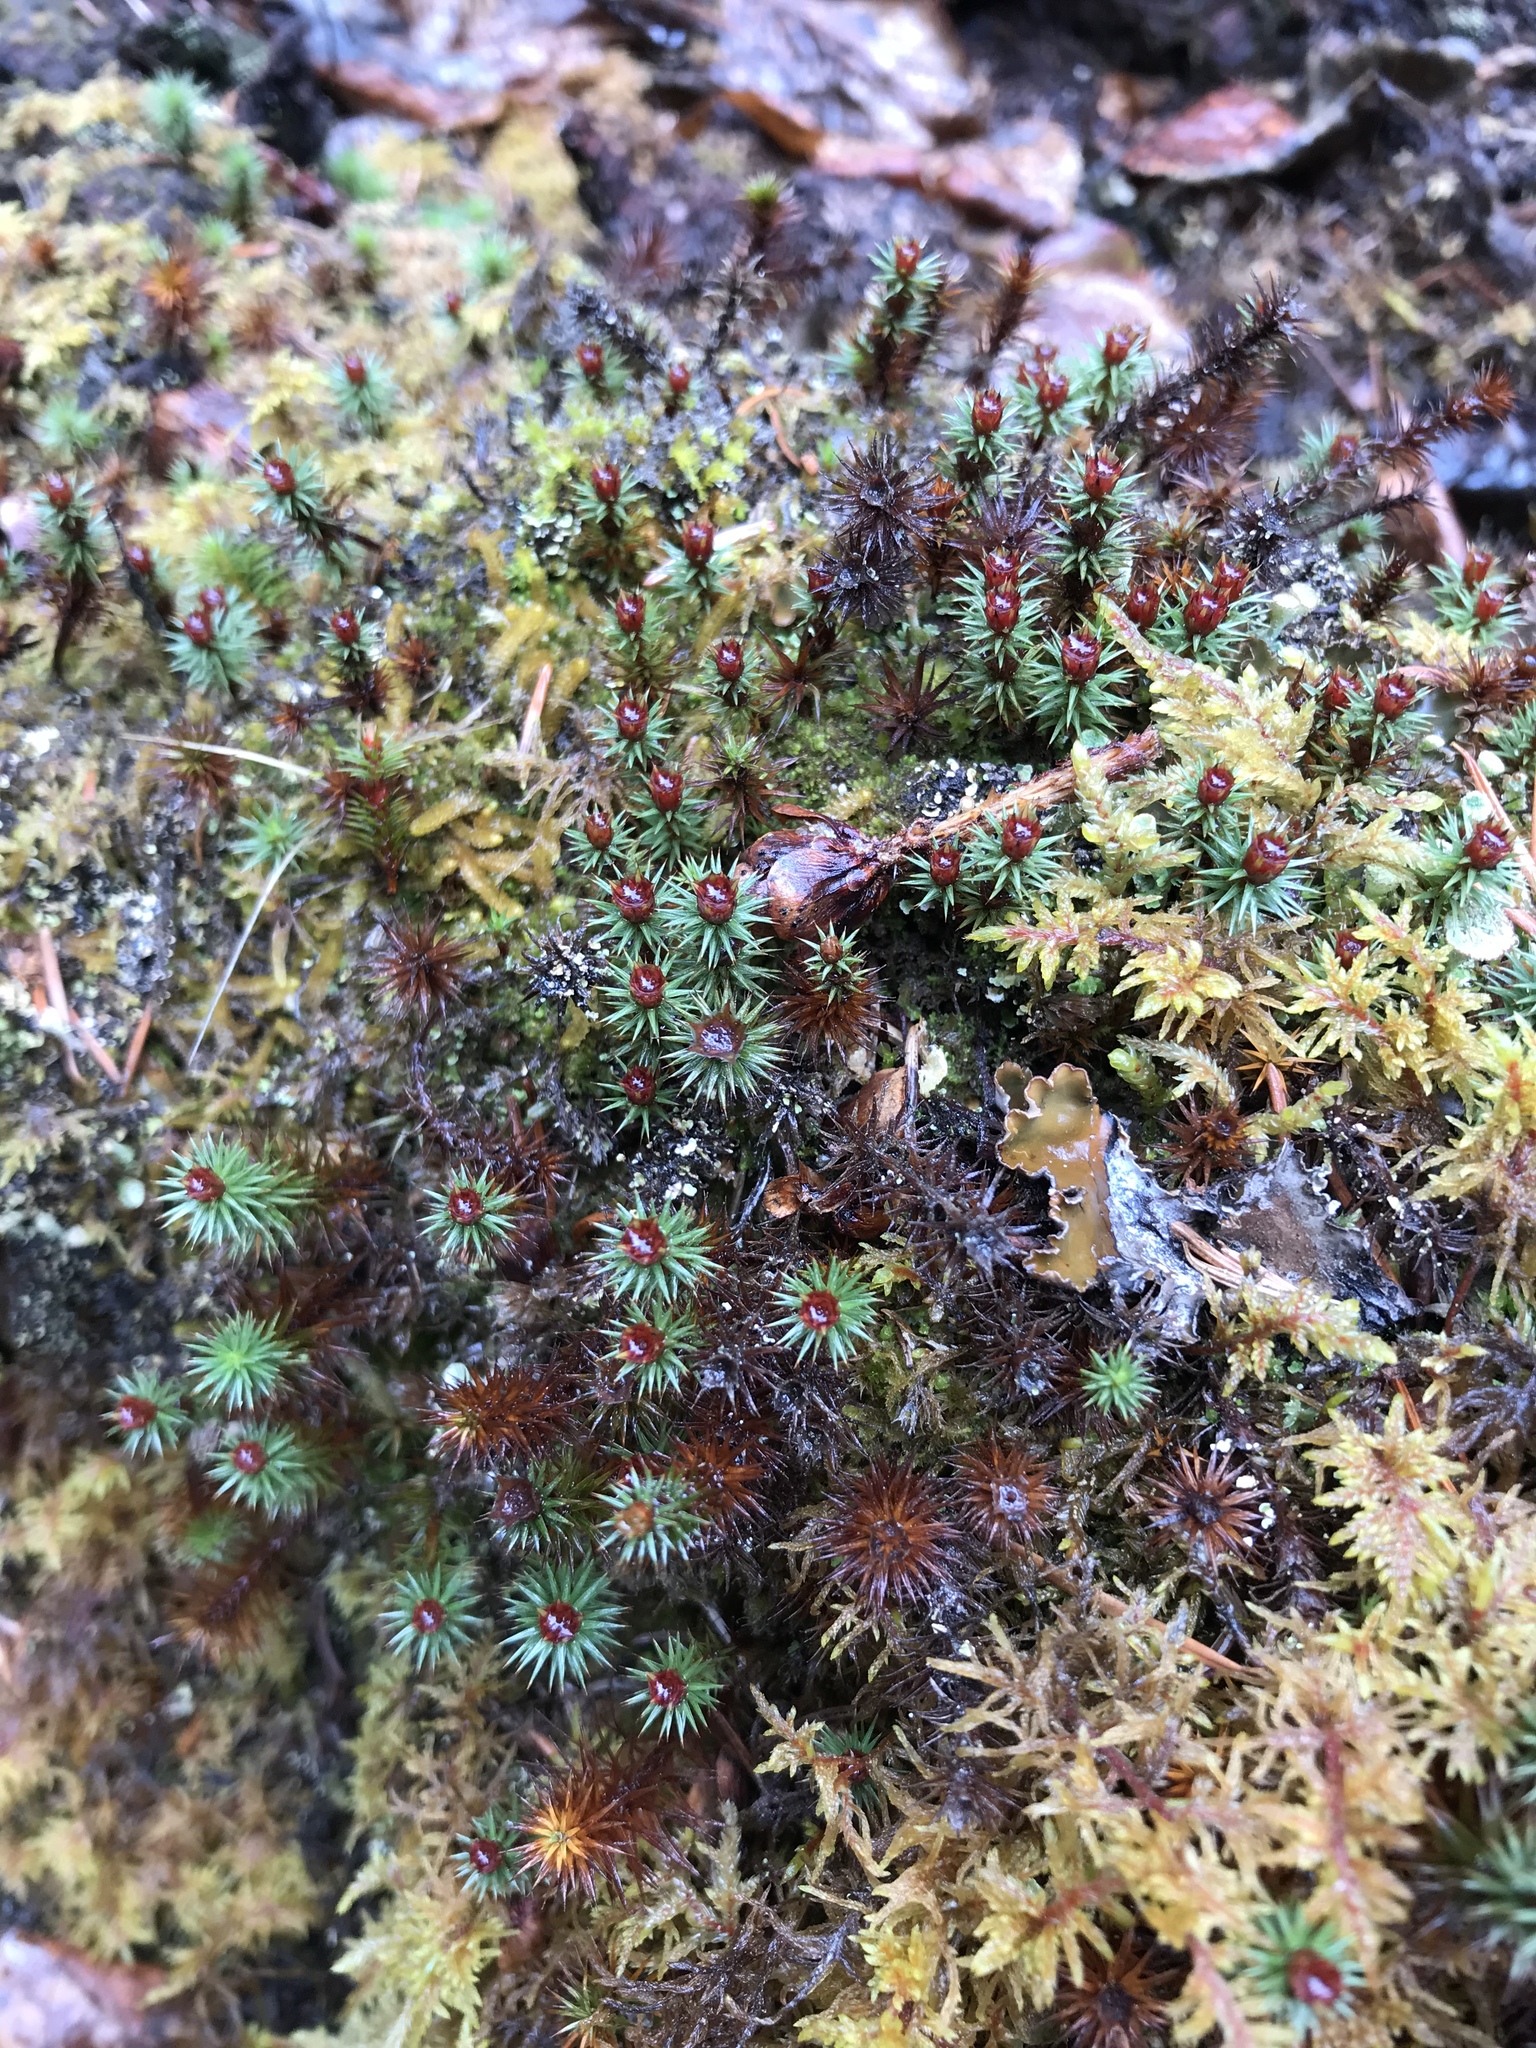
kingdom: Plantae
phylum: Bryophyta
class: Polytrichopsida
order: Polytrichales
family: Polytrichaceae
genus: Polytrichum
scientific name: Polytrichum juniperinum
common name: Juniper haircap moss
